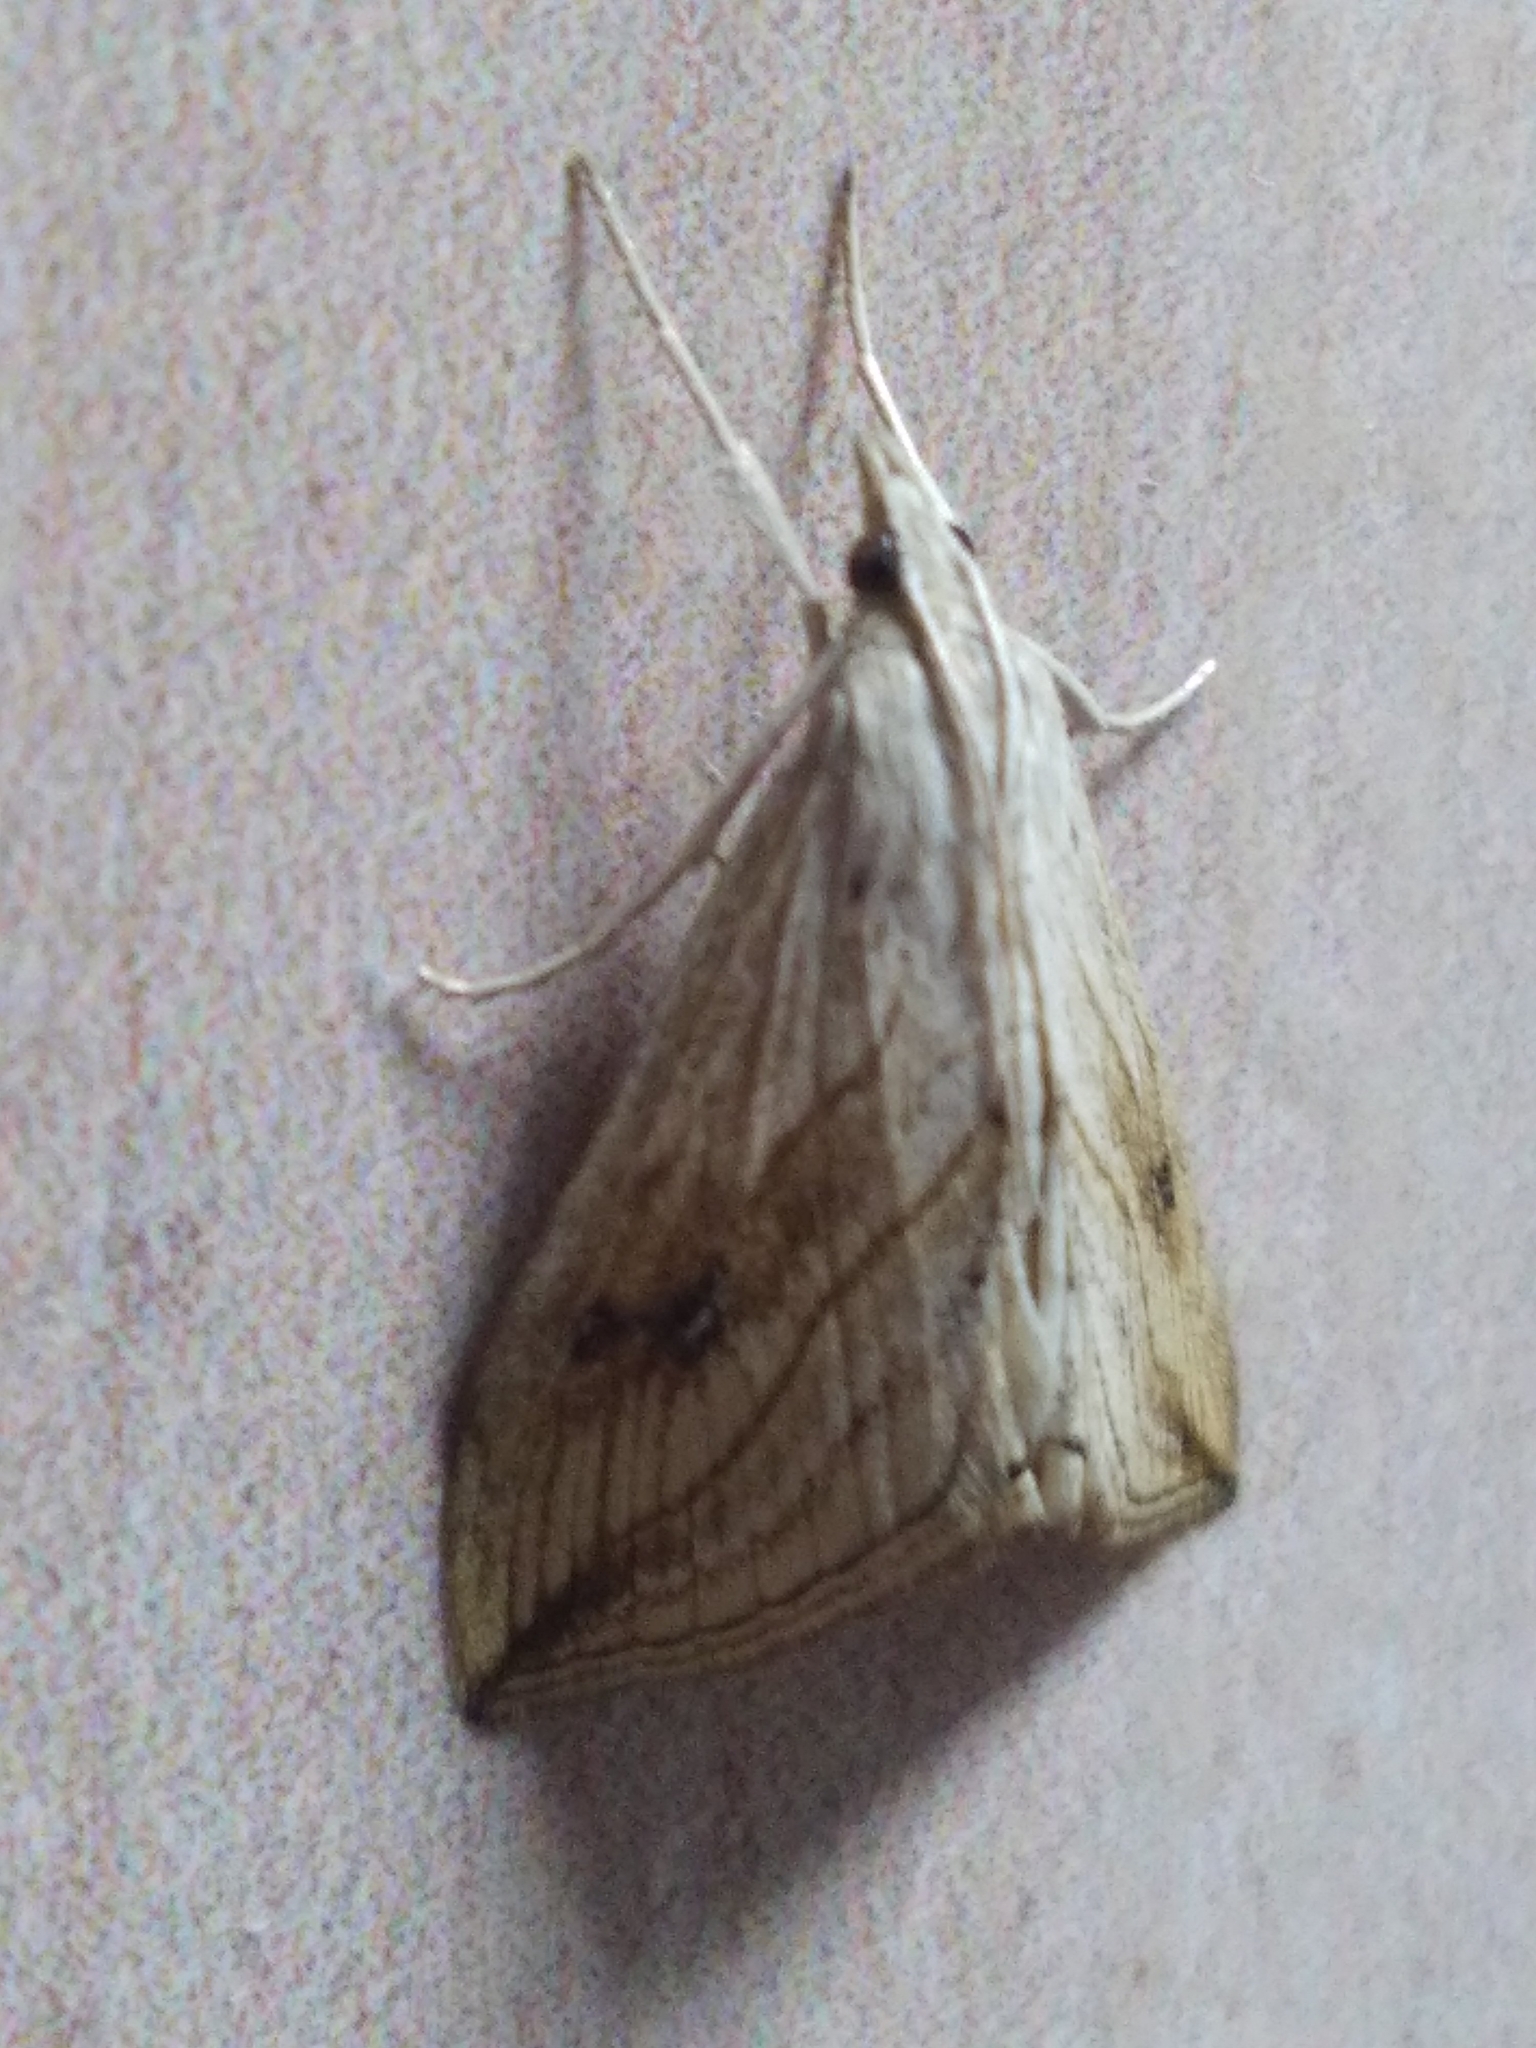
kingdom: Animalia
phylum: Arthropoda
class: Insecta
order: Lepidoptera
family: Crambidae
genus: Evergestis
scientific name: Evergestis forficalis
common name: Garden pebble
